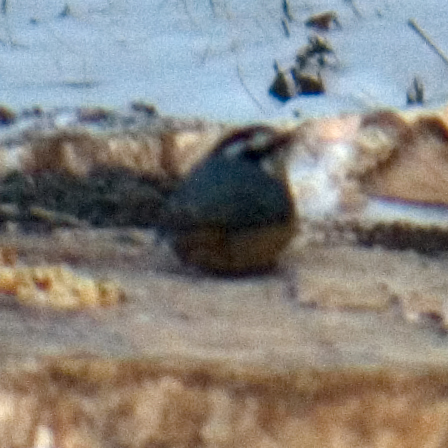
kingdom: Animalia
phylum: Chordata
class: Aves
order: Passeriformes
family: Sittidae
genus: Sitta
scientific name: Sitta canadensis
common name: Red-breasted nuthatch
